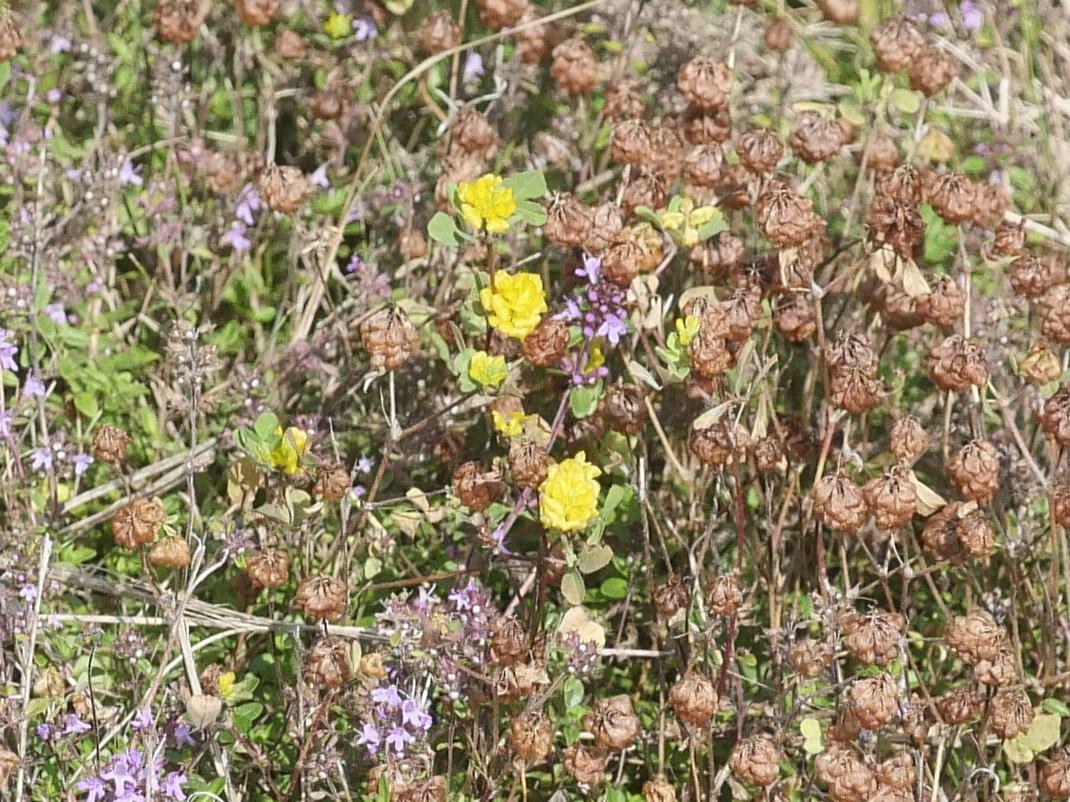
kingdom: Plantae
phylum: Tracheophyta
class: Magnoliopsida
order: Fabales
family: Fabaceae
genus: Trifolium
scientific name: Trifolium campestre
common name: Field clover
